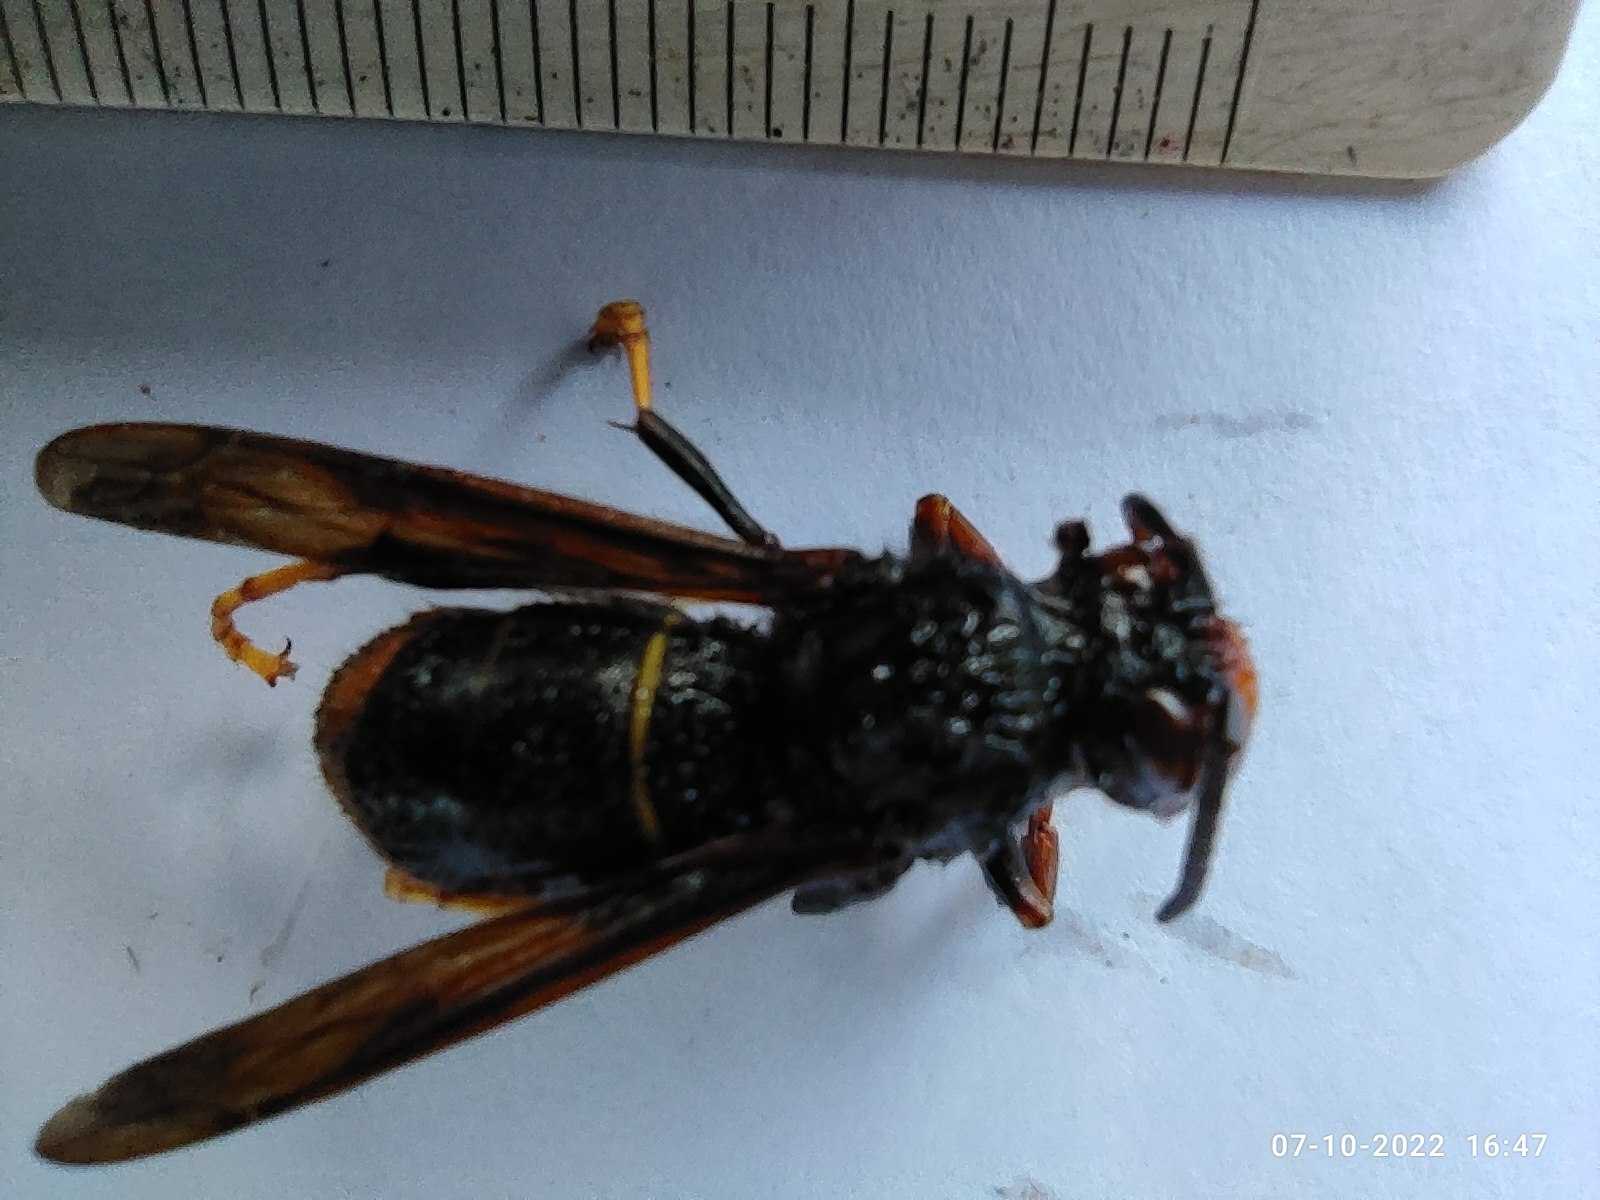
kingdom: Animalia
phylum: Arthropoda
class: Insecta
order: Hymenoptera
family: Vespidae
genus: Vespa
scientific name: Vespa velutina
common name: Asian hornet
